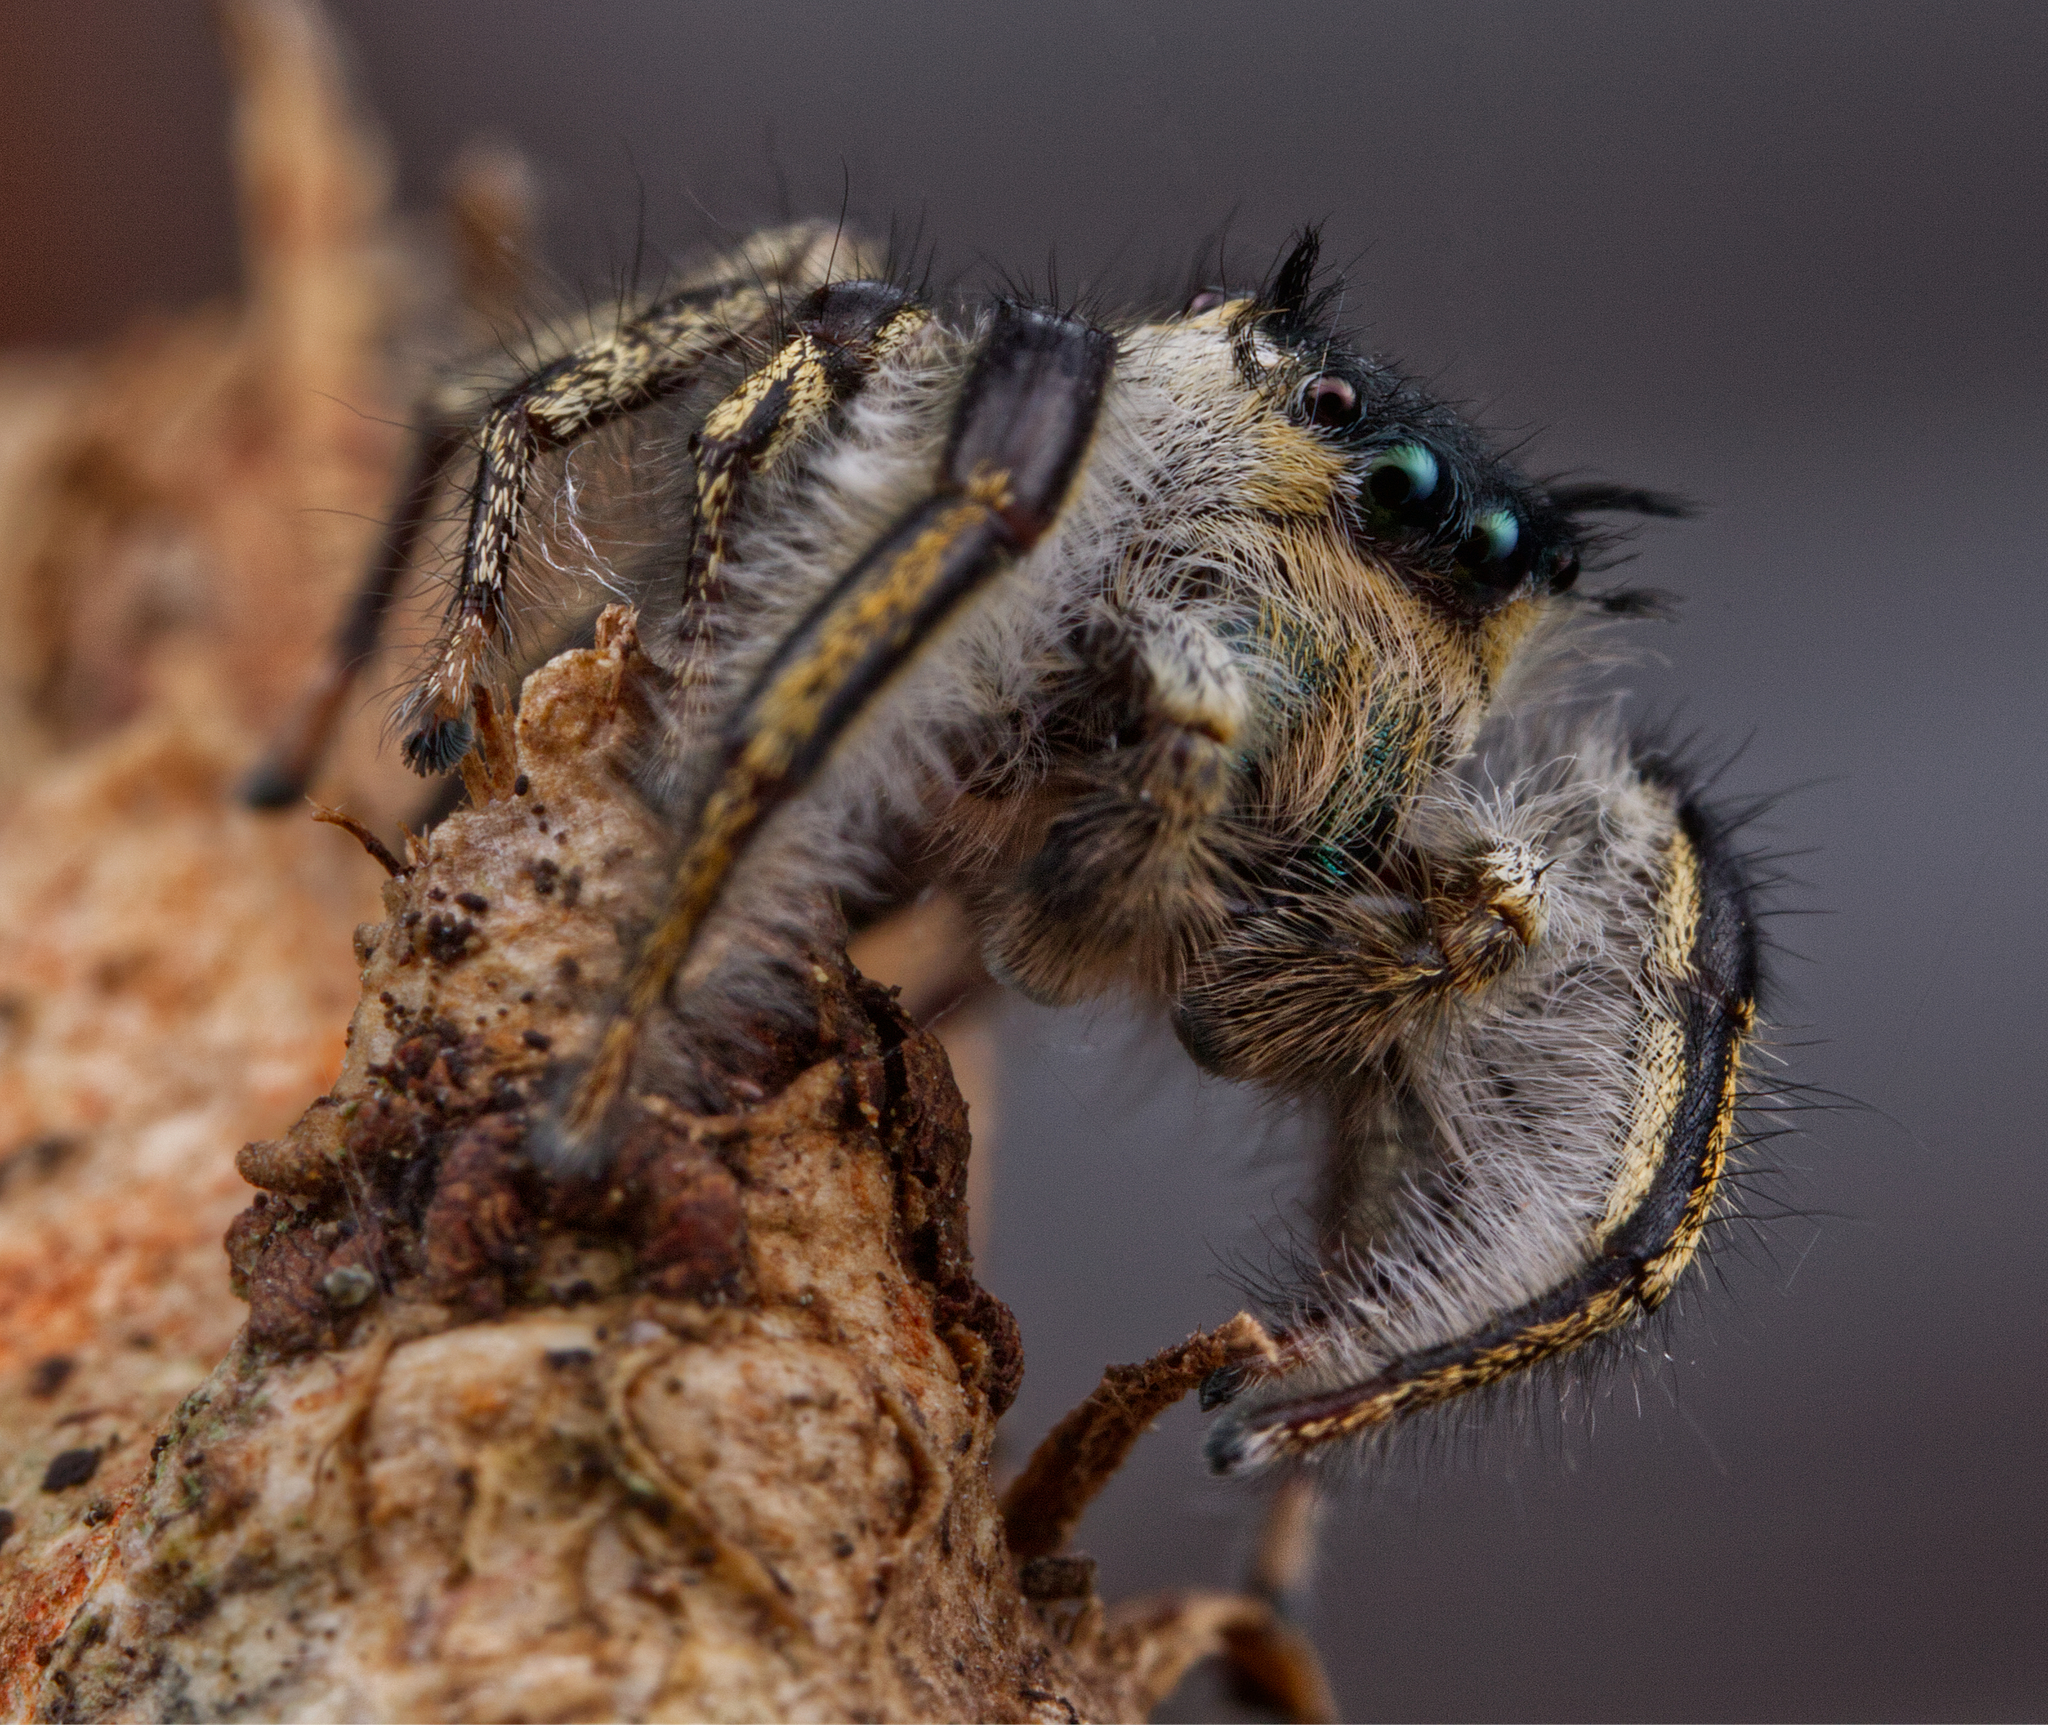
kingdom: Animalia
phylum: Arthropoda
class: Arachnida
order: Araneae
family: Salticidae
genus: Phidippus
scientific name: Phidippus insignarius
